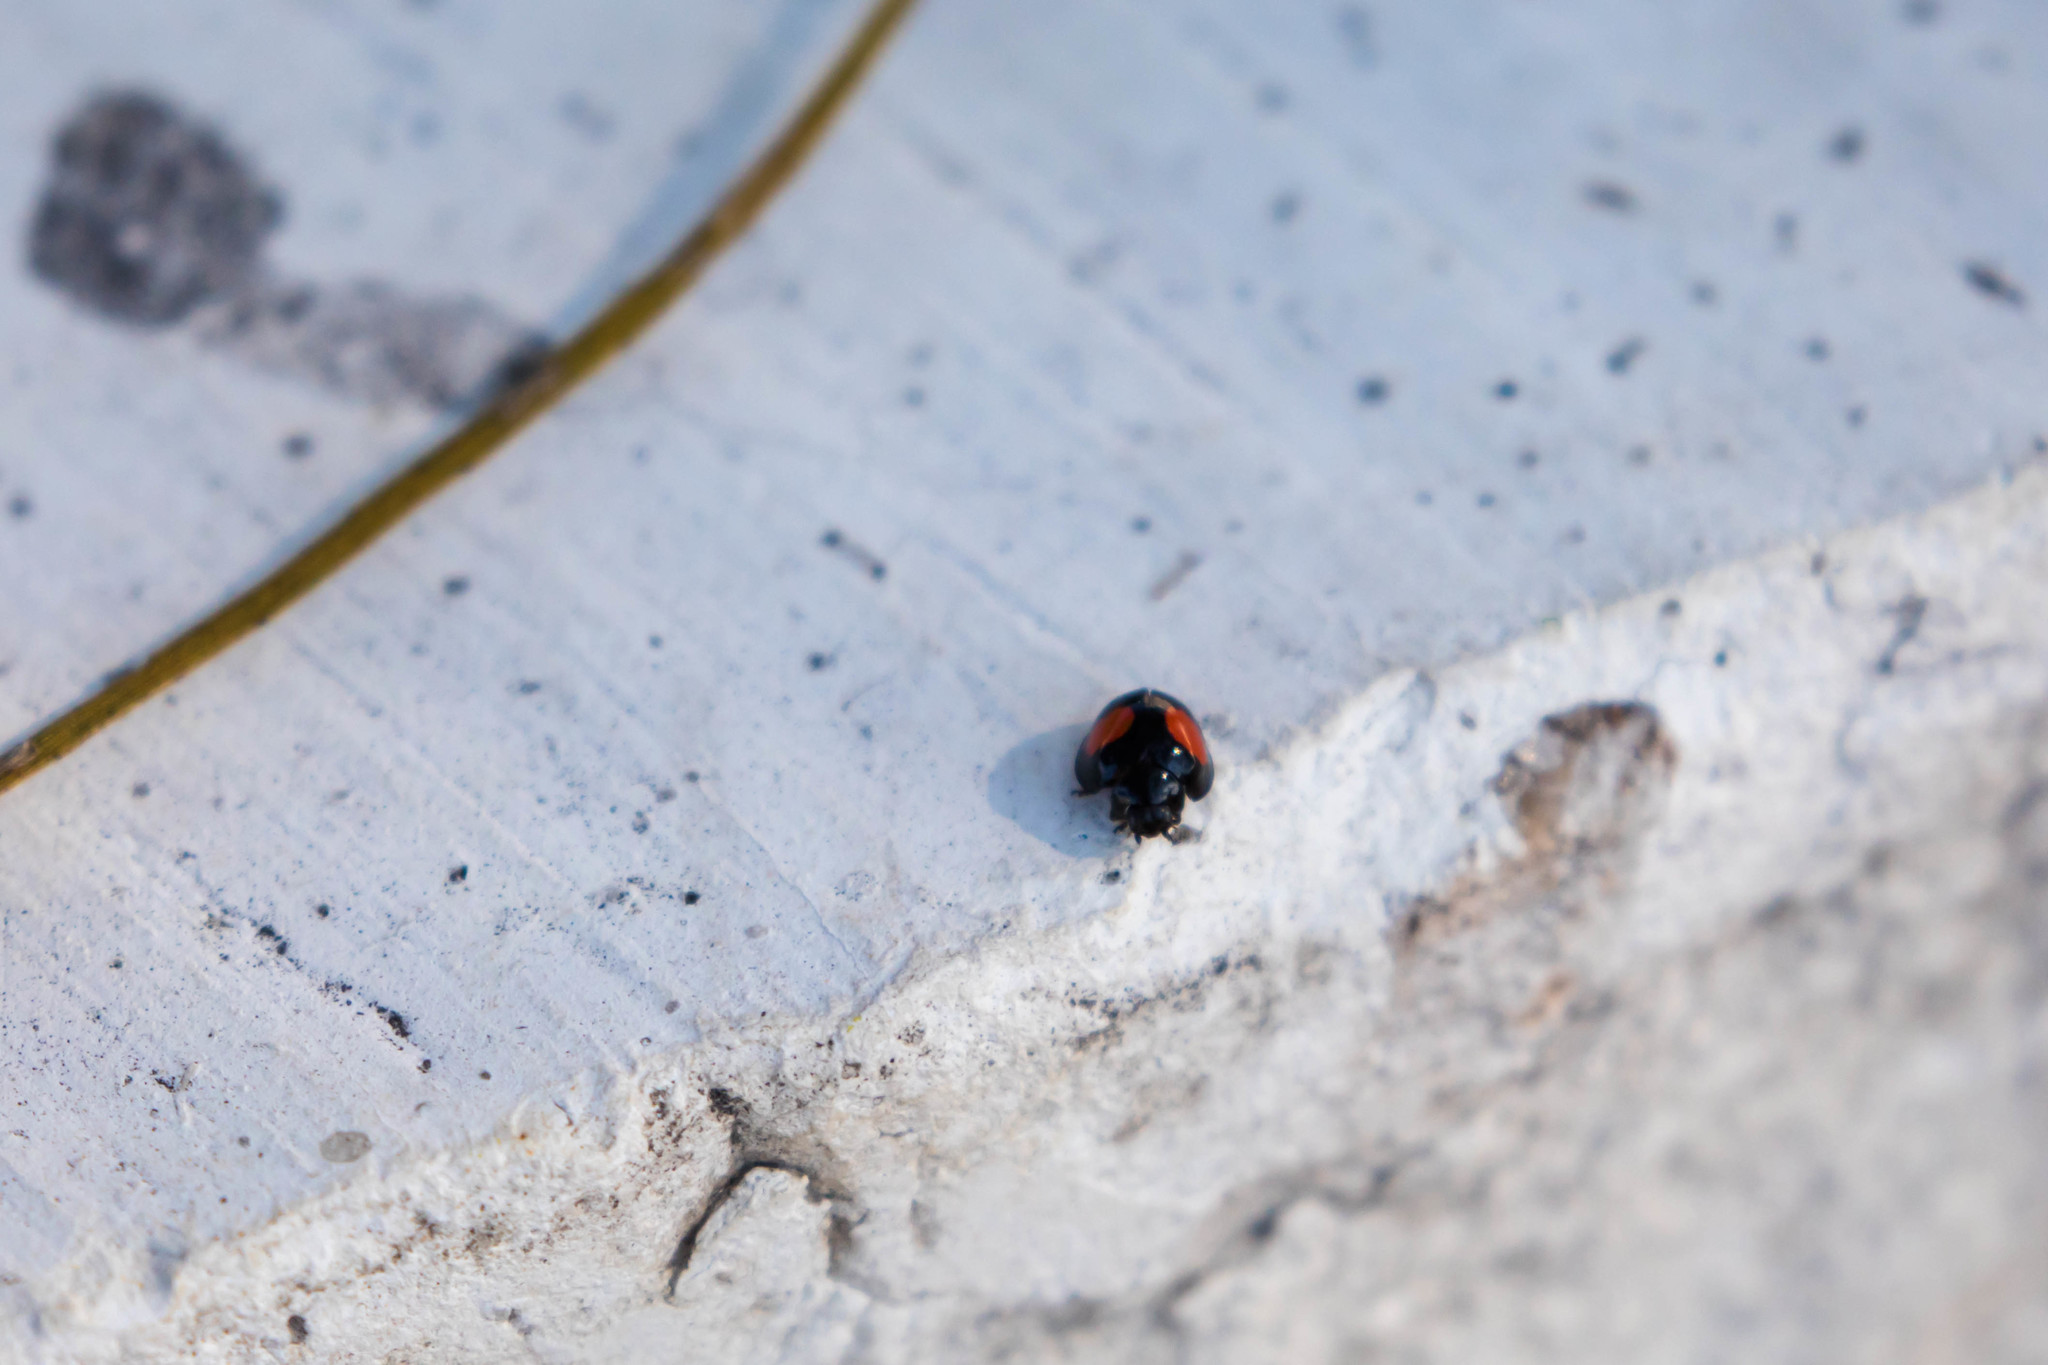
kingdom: Animalia
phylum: Arthropoda
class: Insecta
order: Coleoptera
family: Coccinellidae
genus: Chilocorus
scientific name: Chilocorus cacti
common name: Cactus lady beetle
